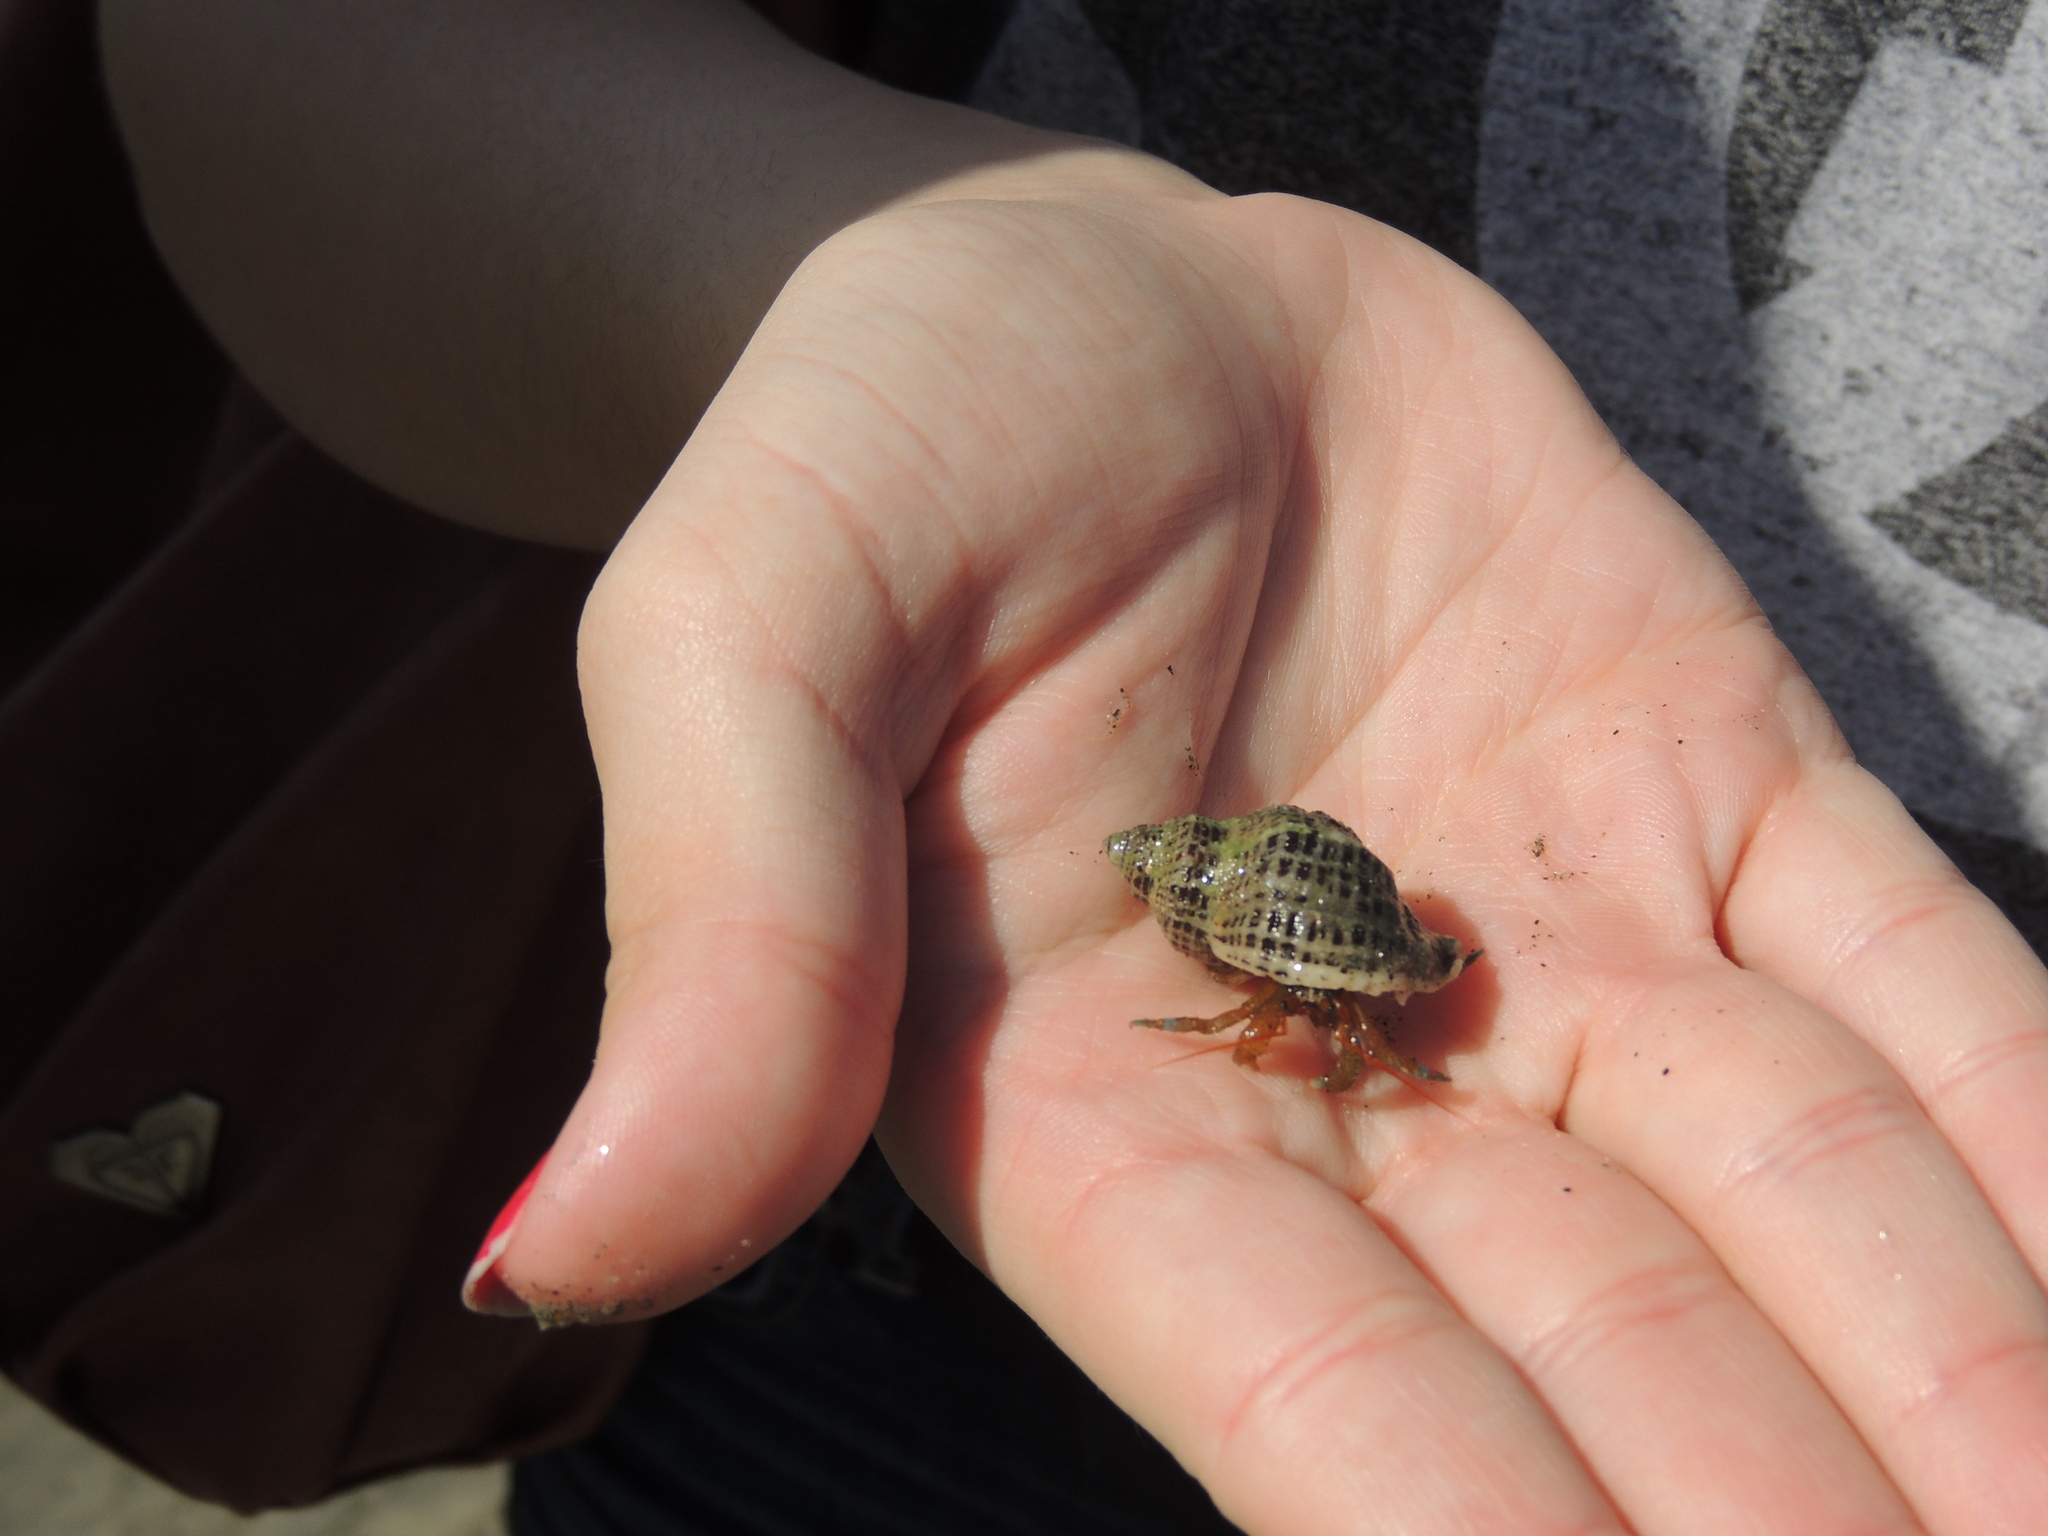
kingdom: Animalia
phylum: Arthropoda
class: Malacostraca
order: Decapoda
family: Paguridae
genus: Pagurus
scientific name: Pagurus samuelis
